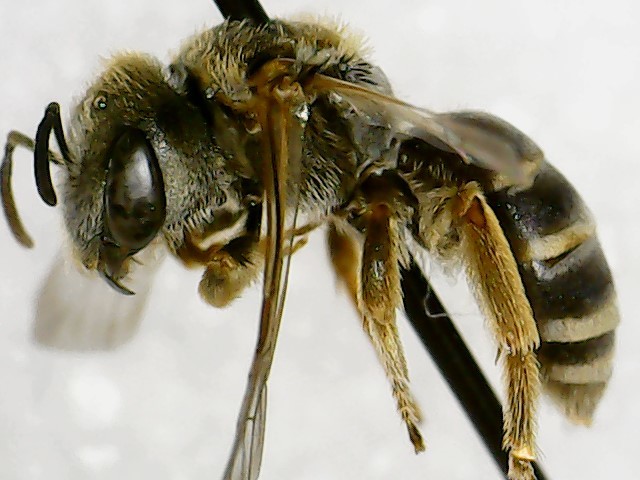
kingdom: Animalia
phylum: Arthropoda
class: Insecta
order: Hymenoptera
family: Halictidae
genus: Halictus
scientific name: Halictus ligatus
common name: Ligated furrow bee
